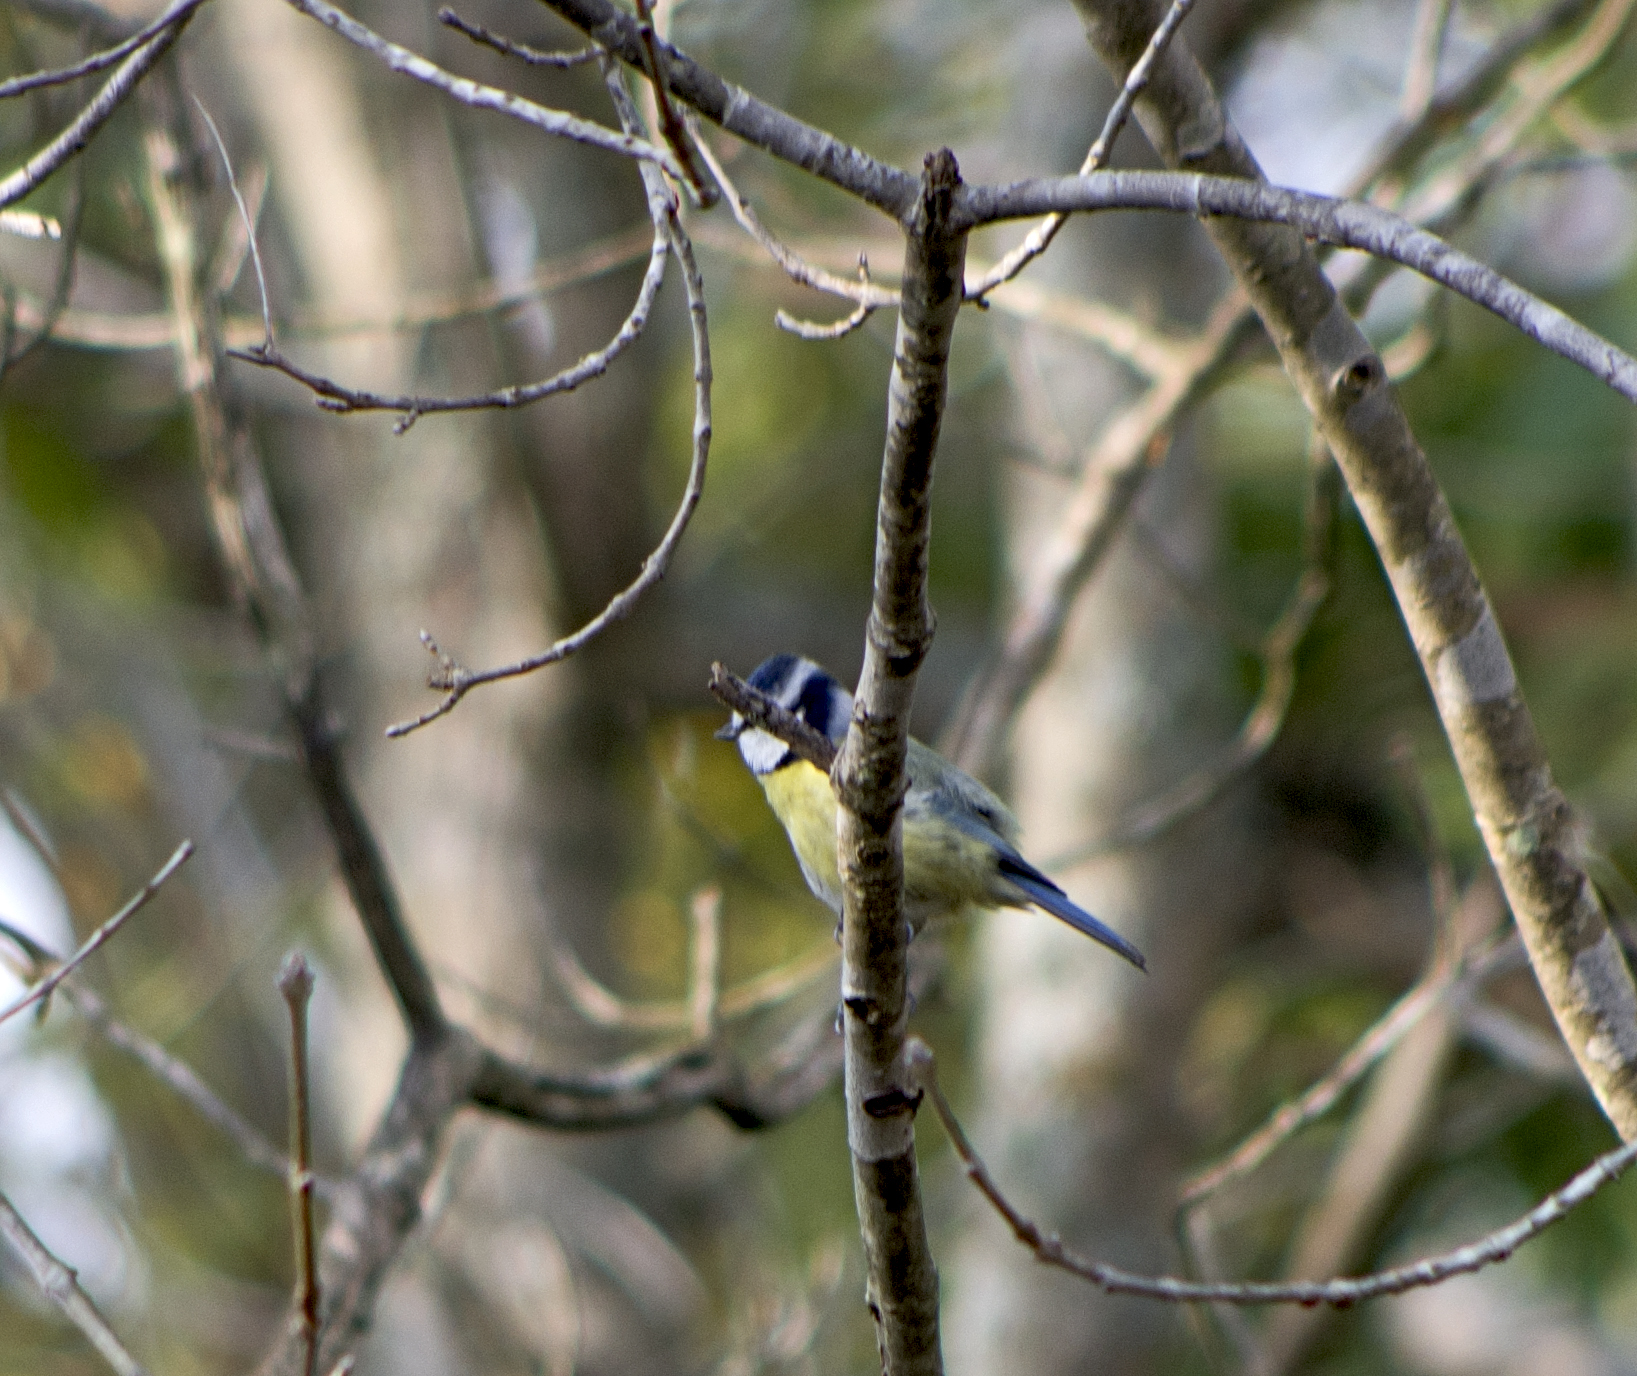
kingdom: Animalia
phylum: Chordata
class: Aves
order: Passeriformes
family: Paridae
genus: Cyanistes
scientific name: Cyanistes caeruleus
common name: Eurasian blue tit
